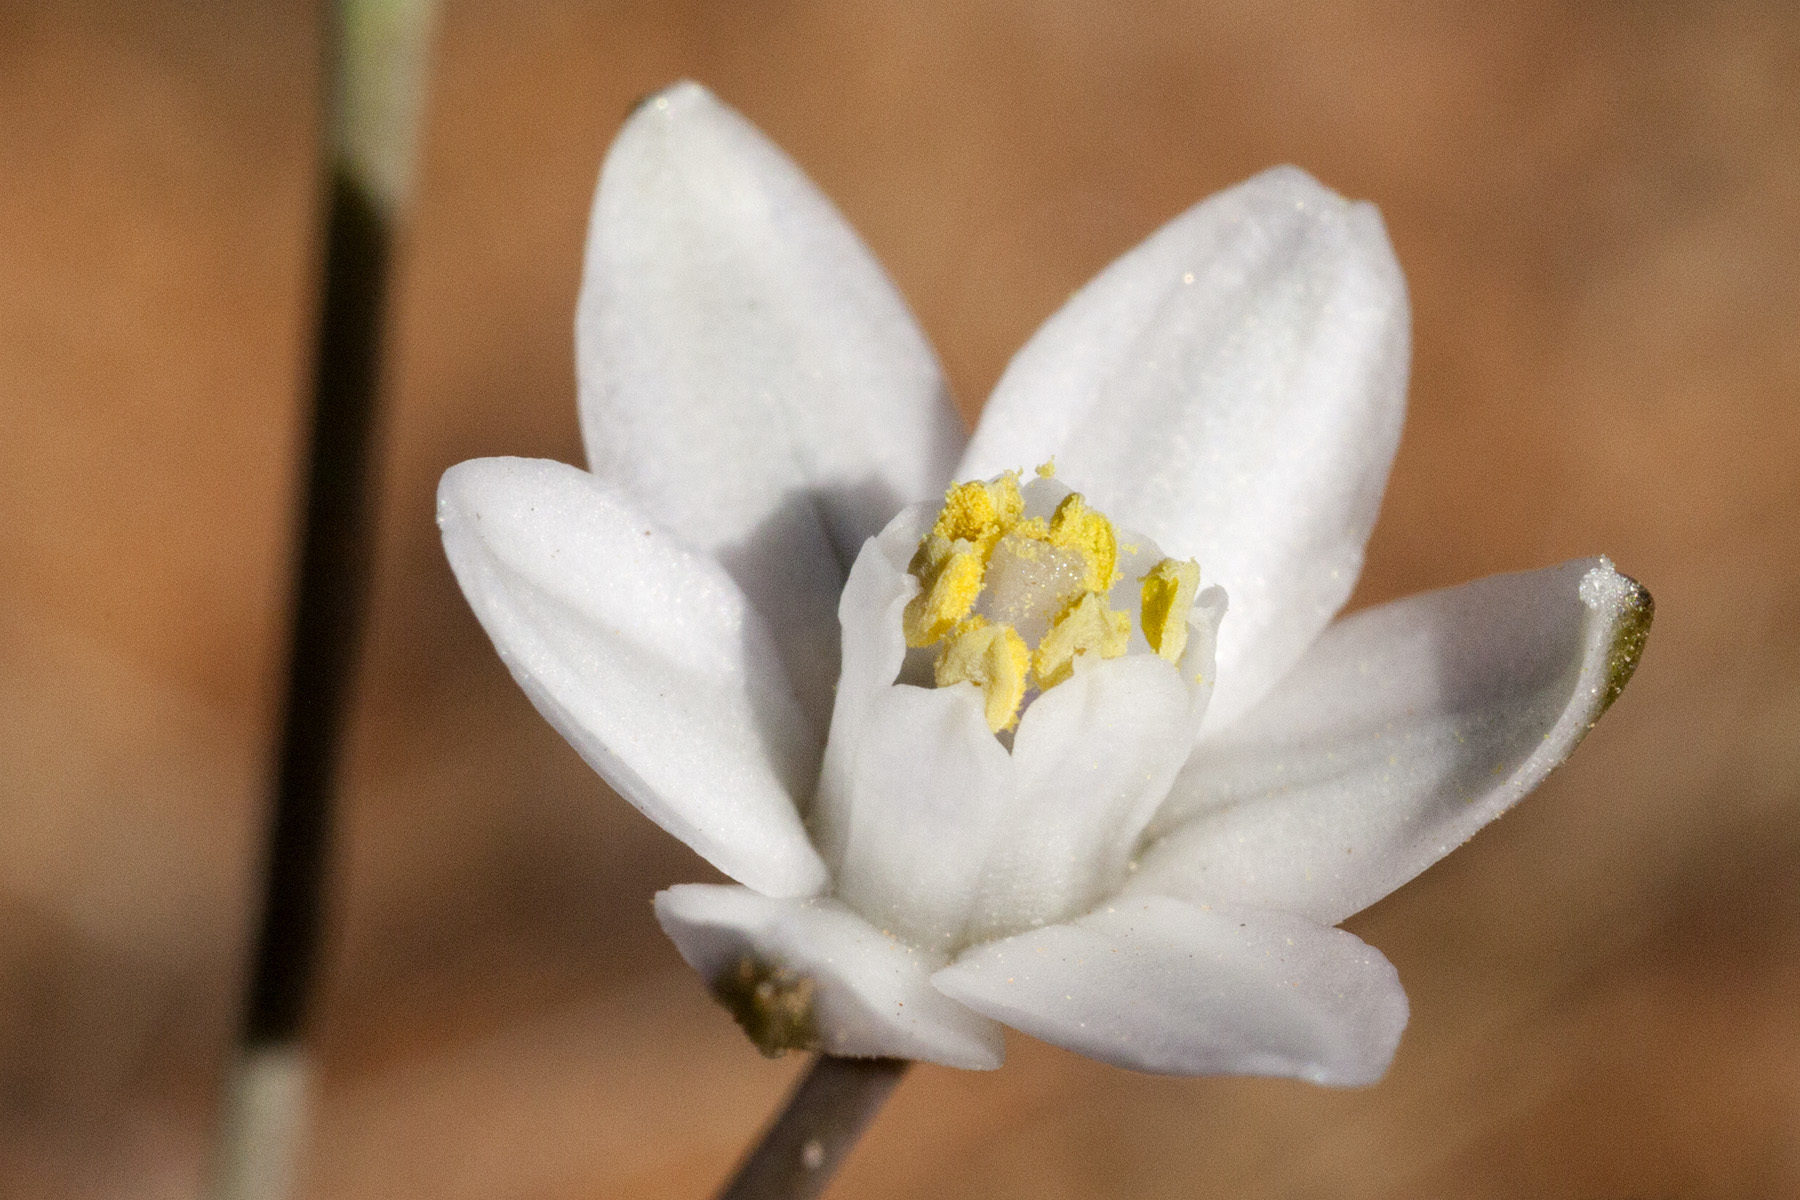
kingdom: Plantae
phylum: Tracheophyta
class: Liliopsida
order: Asparagales
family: Asparagaceae
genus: Muilla
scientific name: Muilla lordsburgana
